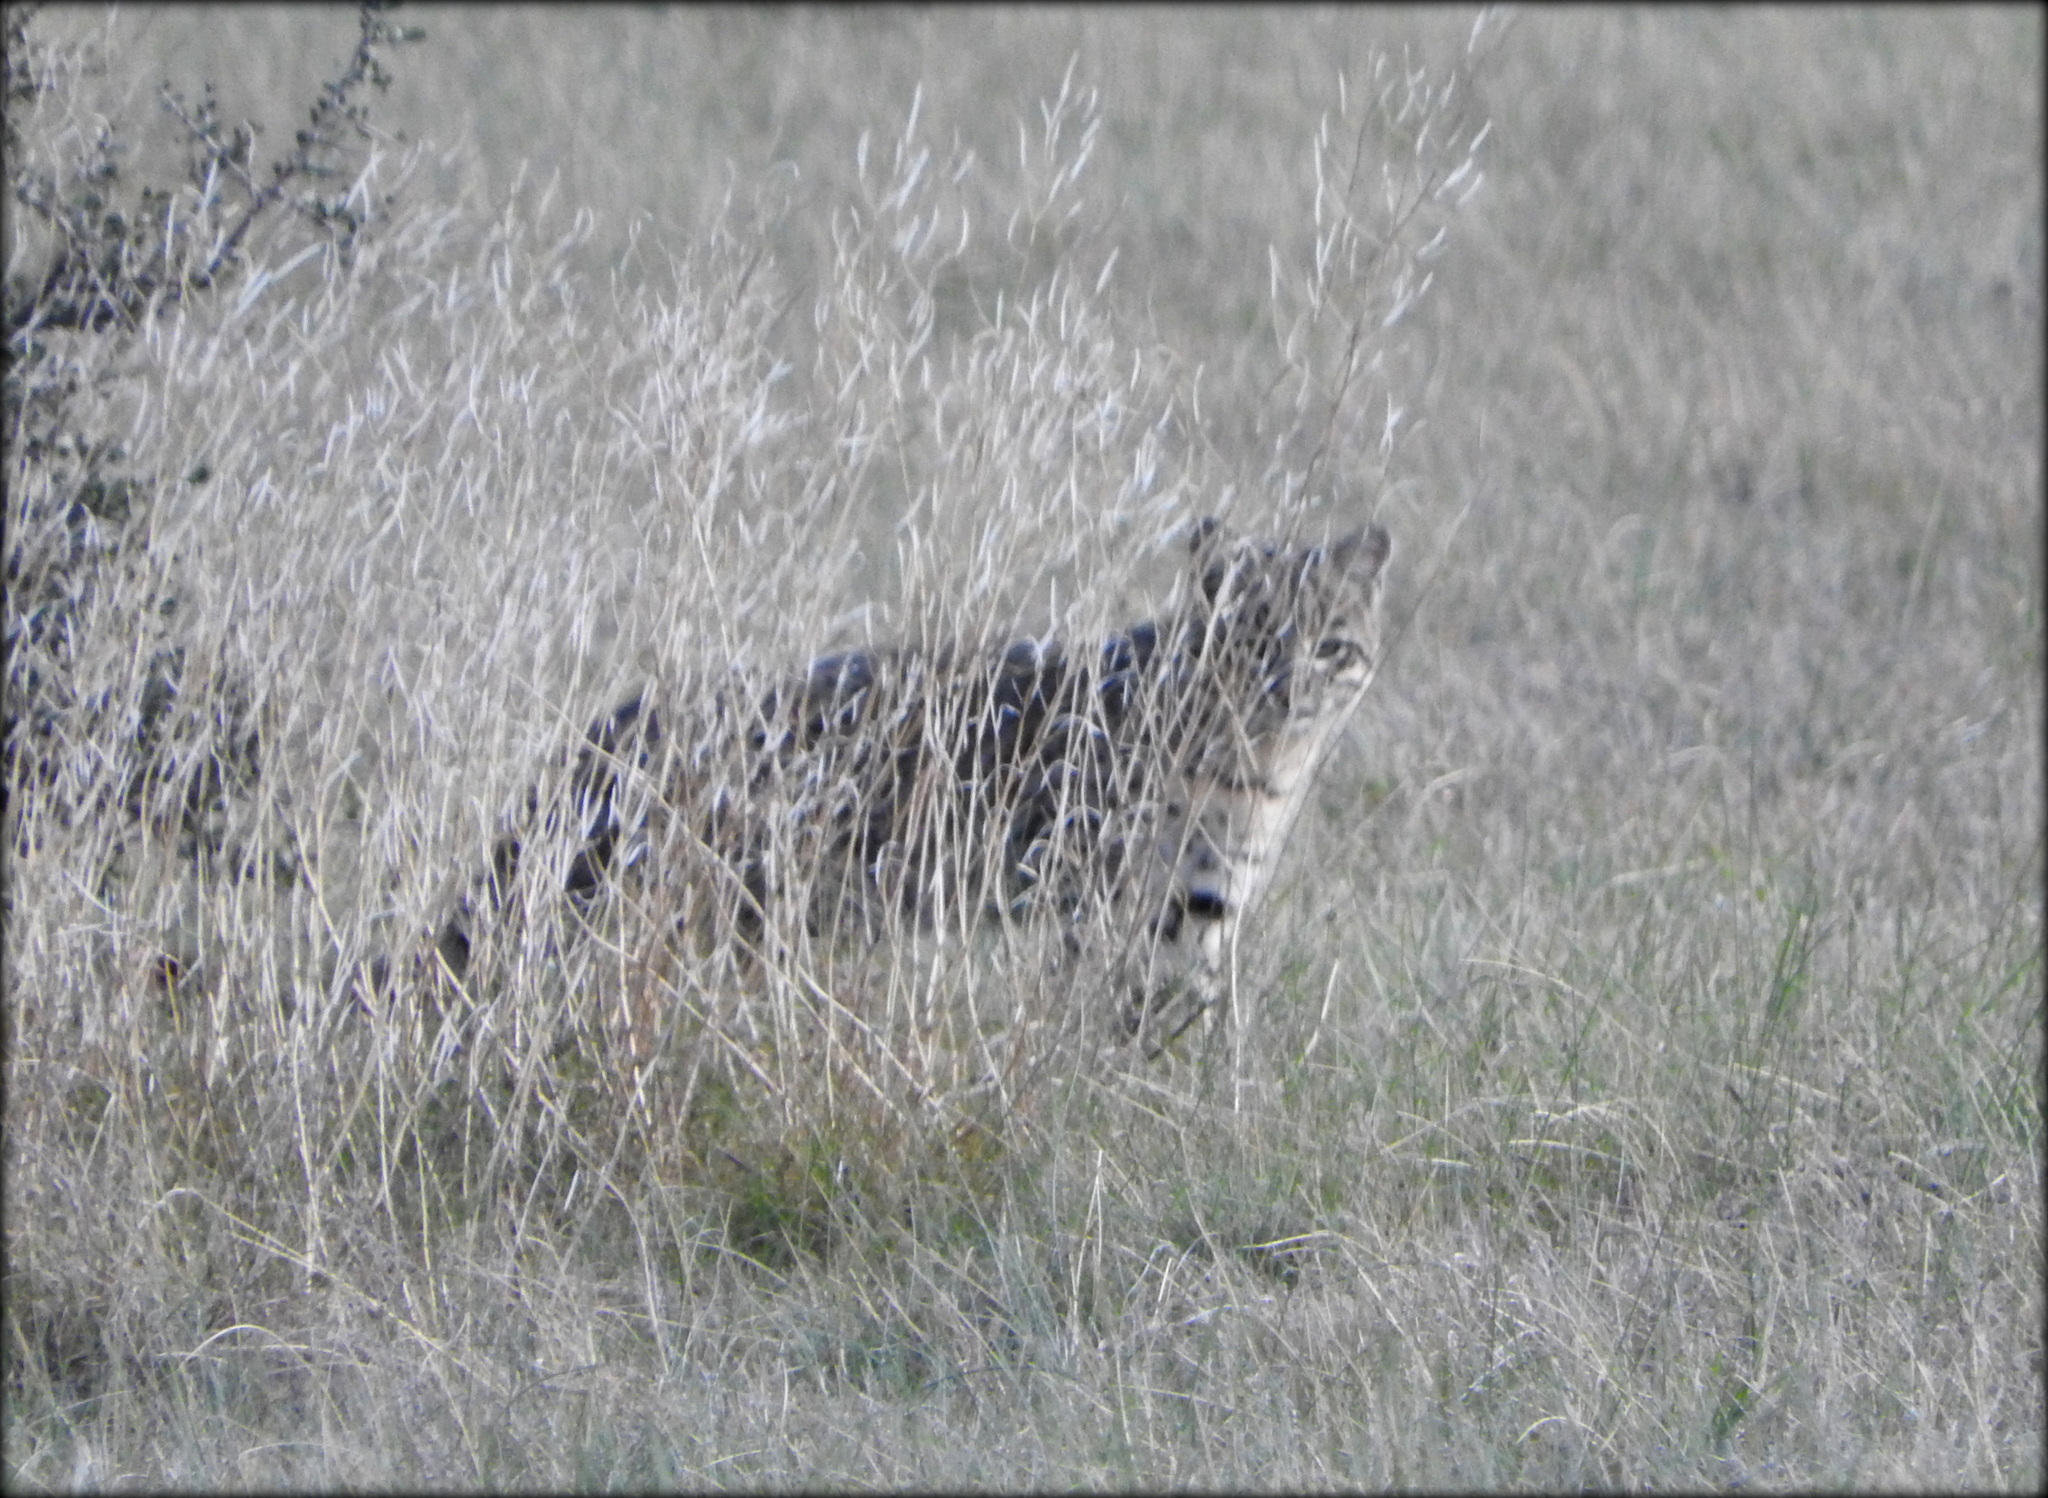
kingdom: Animalia
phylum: Chordata
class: Mammalia
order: Carnivora
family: Felidae
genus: Leopardus
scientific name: Leopardus geoffroyi
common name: Geoffroy's cat
